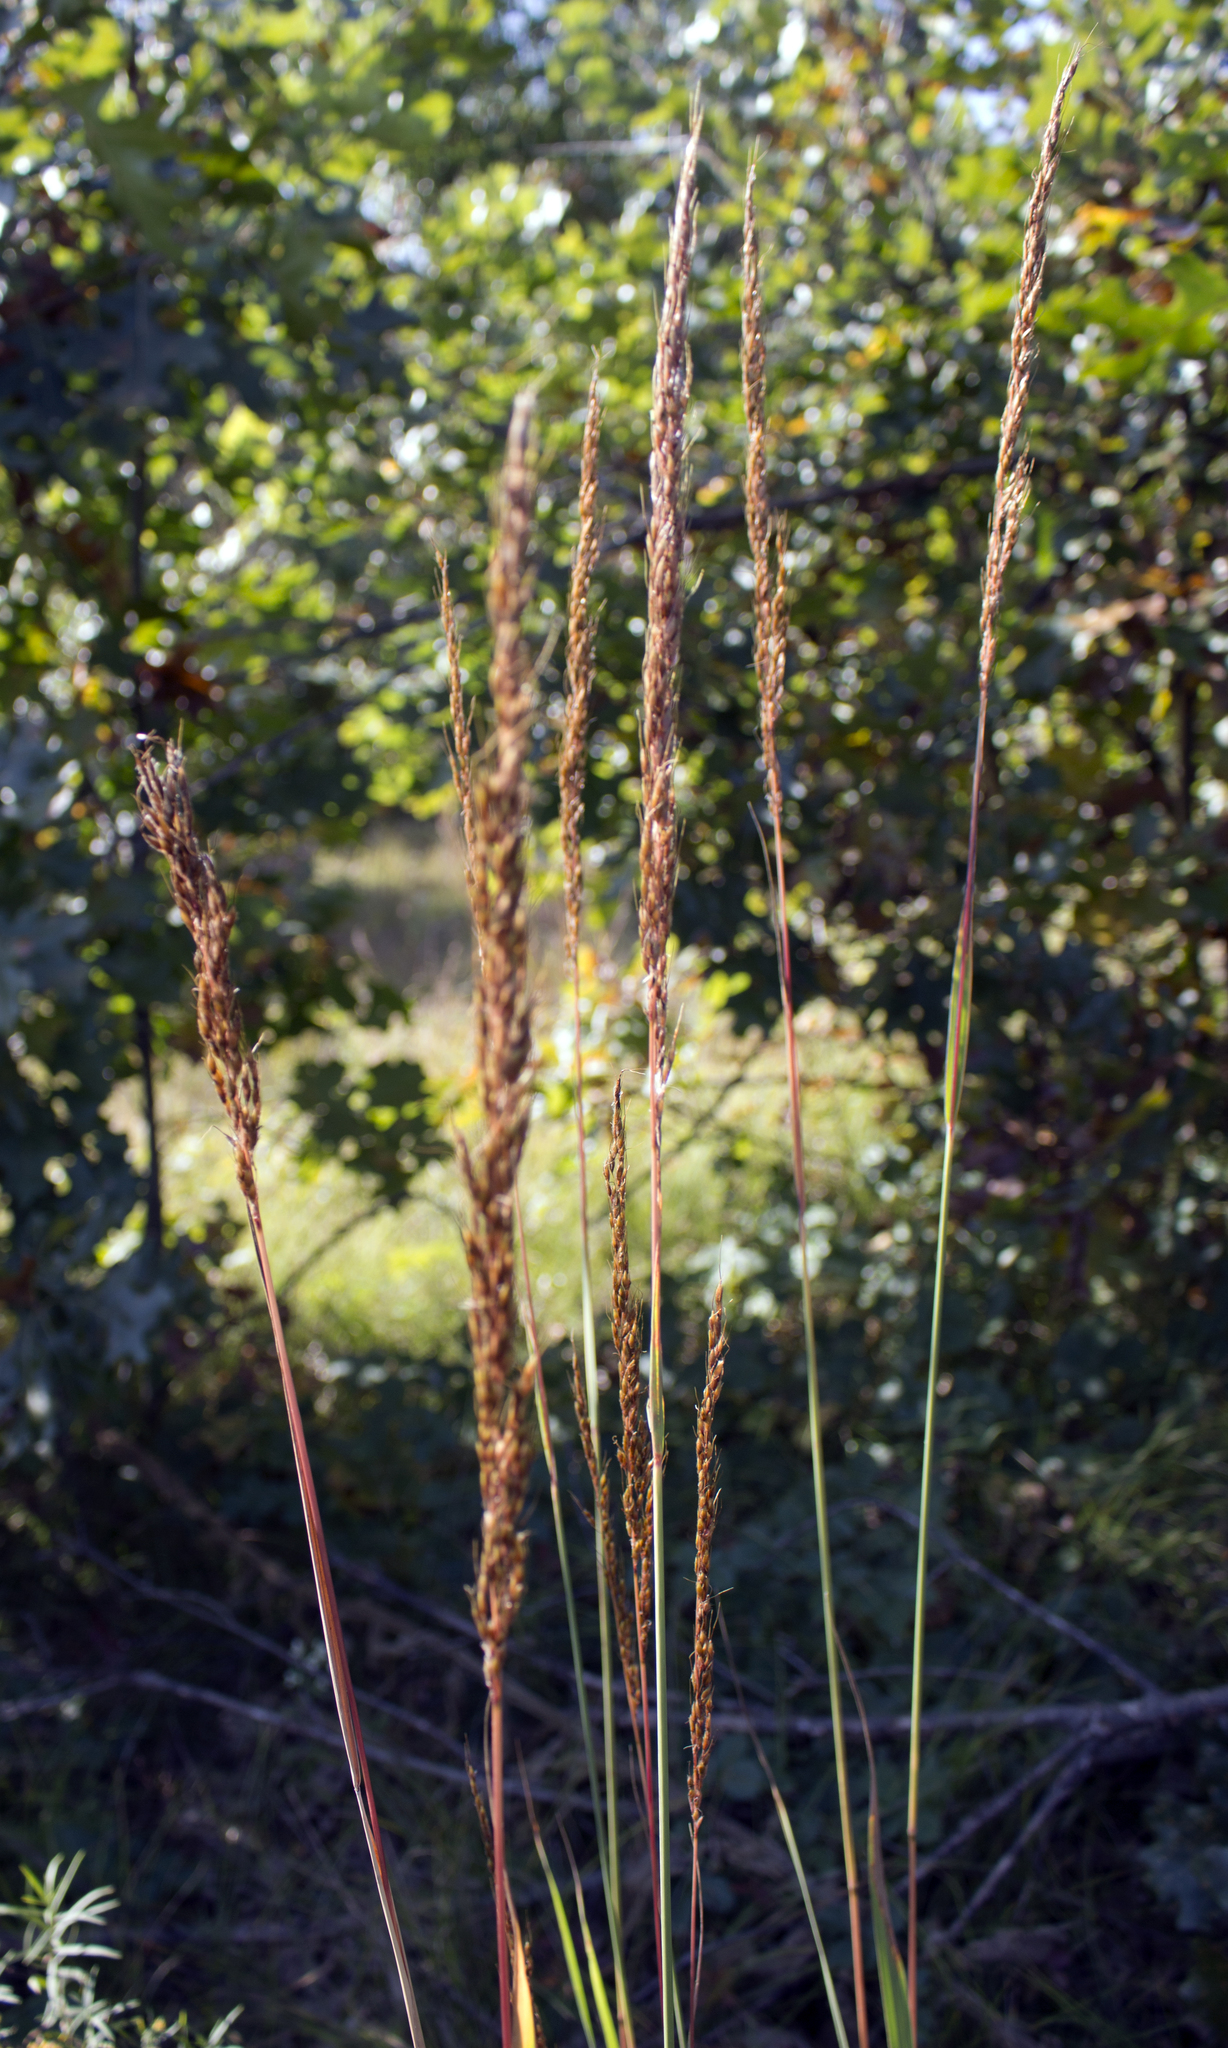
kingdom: Plantae
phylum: Tracheophyta
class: Liliopsida
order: Poales
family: Poaceae
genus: Sorghastrum
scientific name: Sorghastrum nutans
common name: Indian grass
